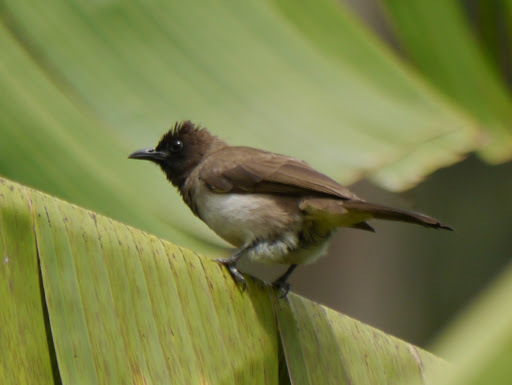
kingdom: Animalia
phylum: Chordata
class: Aves
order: Passeriformes
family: Pycnonotidae
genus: Pycnonotus
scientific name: Pycnonotus barbatus
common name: Common bulbul
